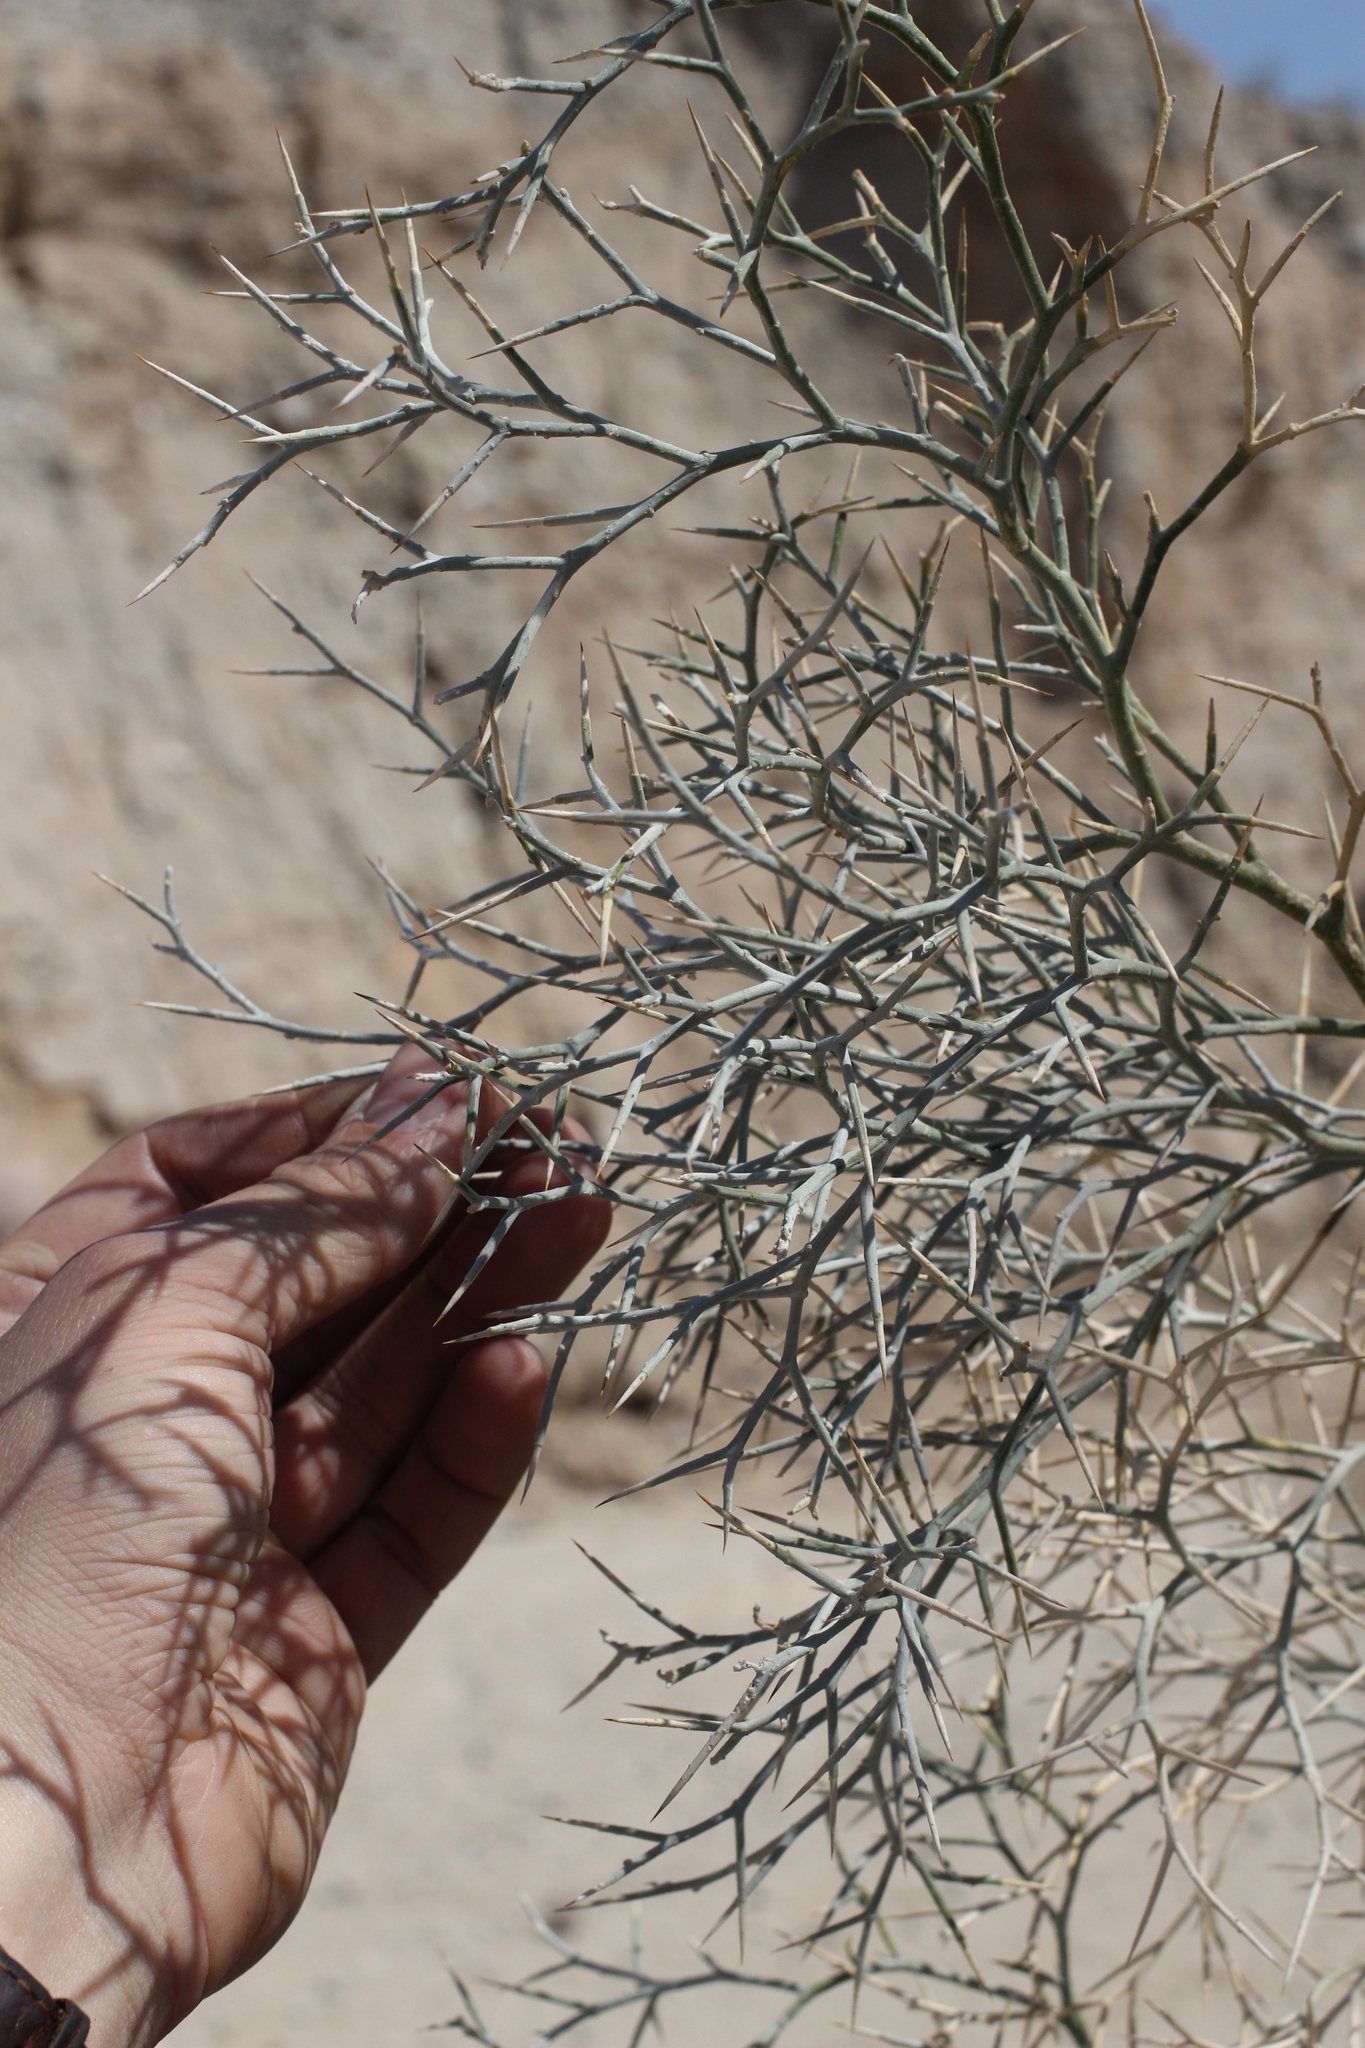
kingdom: Plantae
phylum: Tracheophyta
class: Magnoliopsida
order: Fabales
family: Fabaceae
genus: Psorothamnus
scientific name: Psorothamnus spinosus
